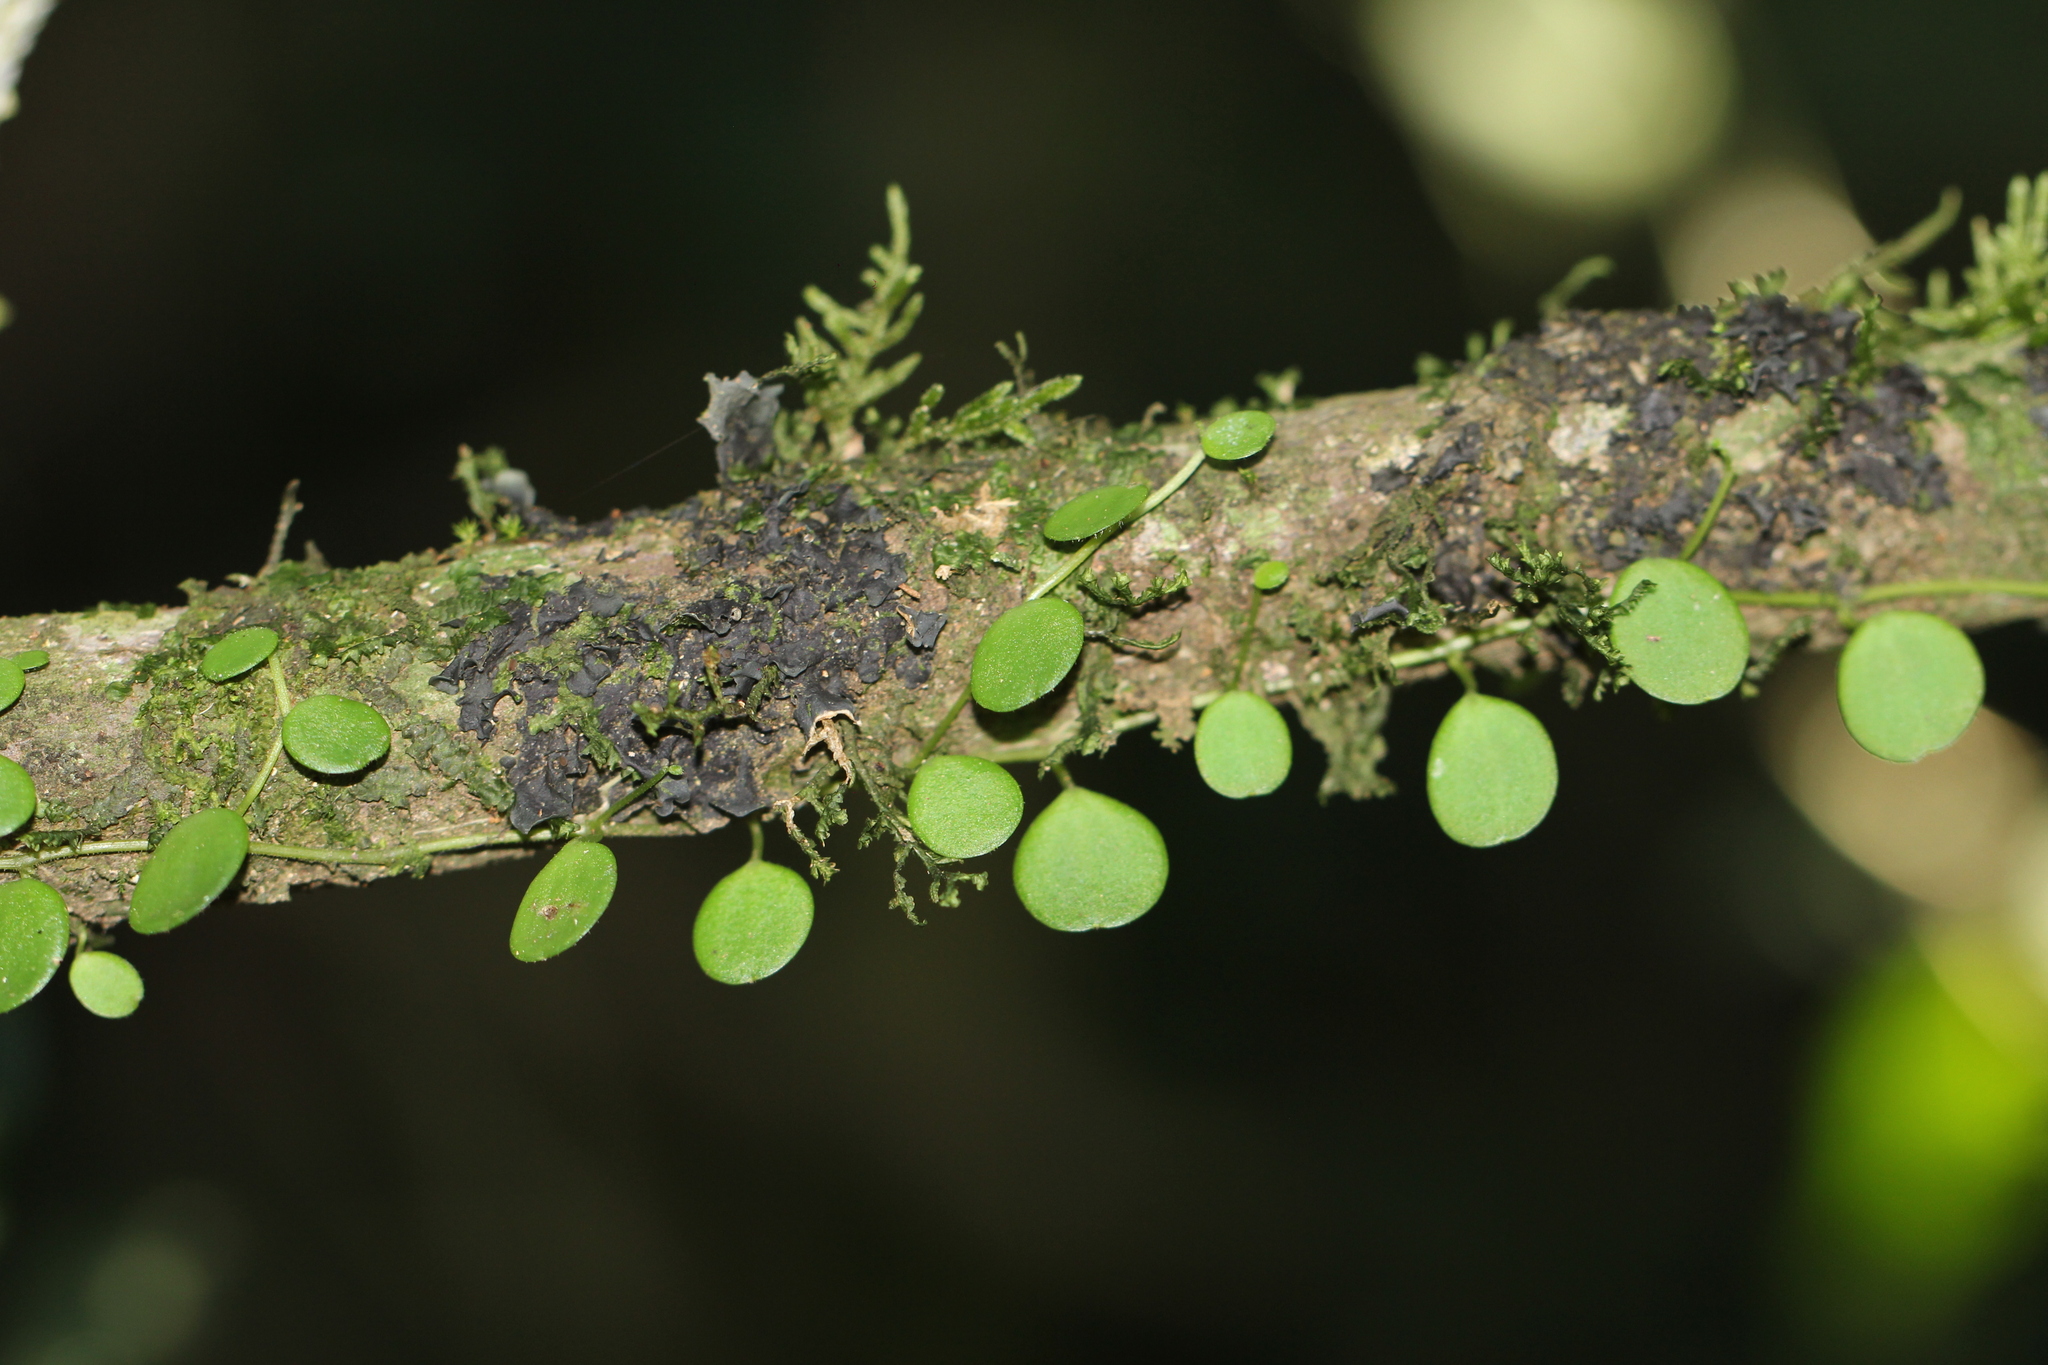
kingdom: Plantae
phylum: Tracheophyta
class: Magnoliopsida
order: Piperales
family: Piperaceae
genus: Peperomia
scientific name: Peperomia rotundifolia
